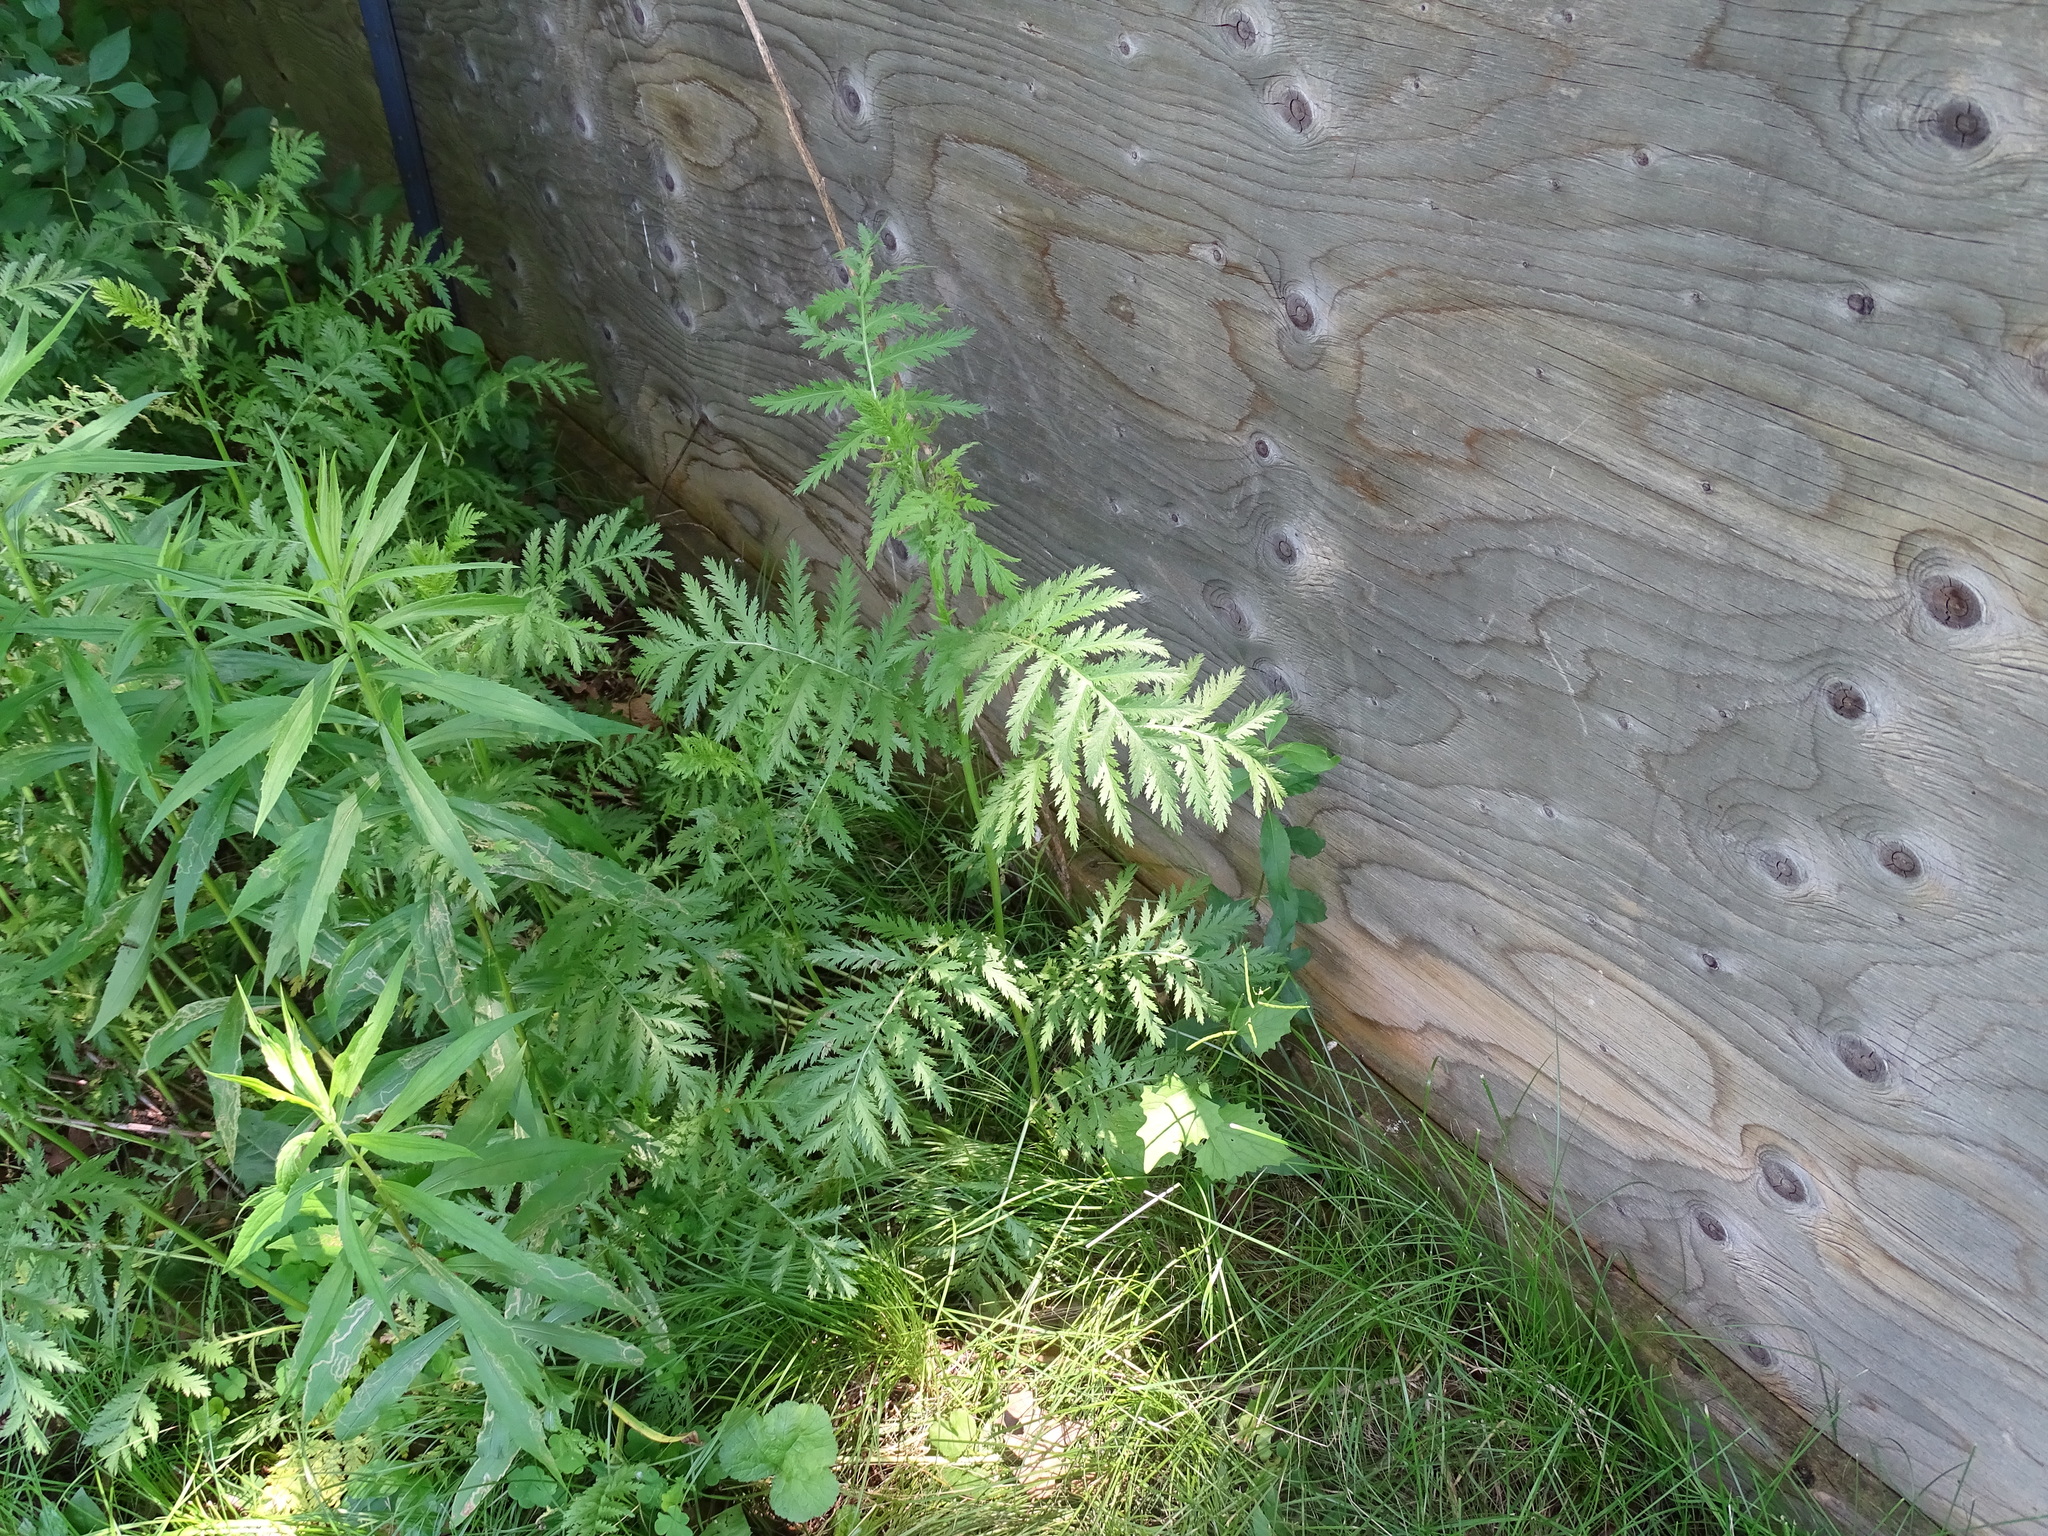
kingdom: Plantae
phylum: Tracheophyta
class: Magnoliopsida
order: Asterales
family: Asteraceae
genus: Tanacetum
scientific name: Tanacetum vulgare
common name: Common tansy
